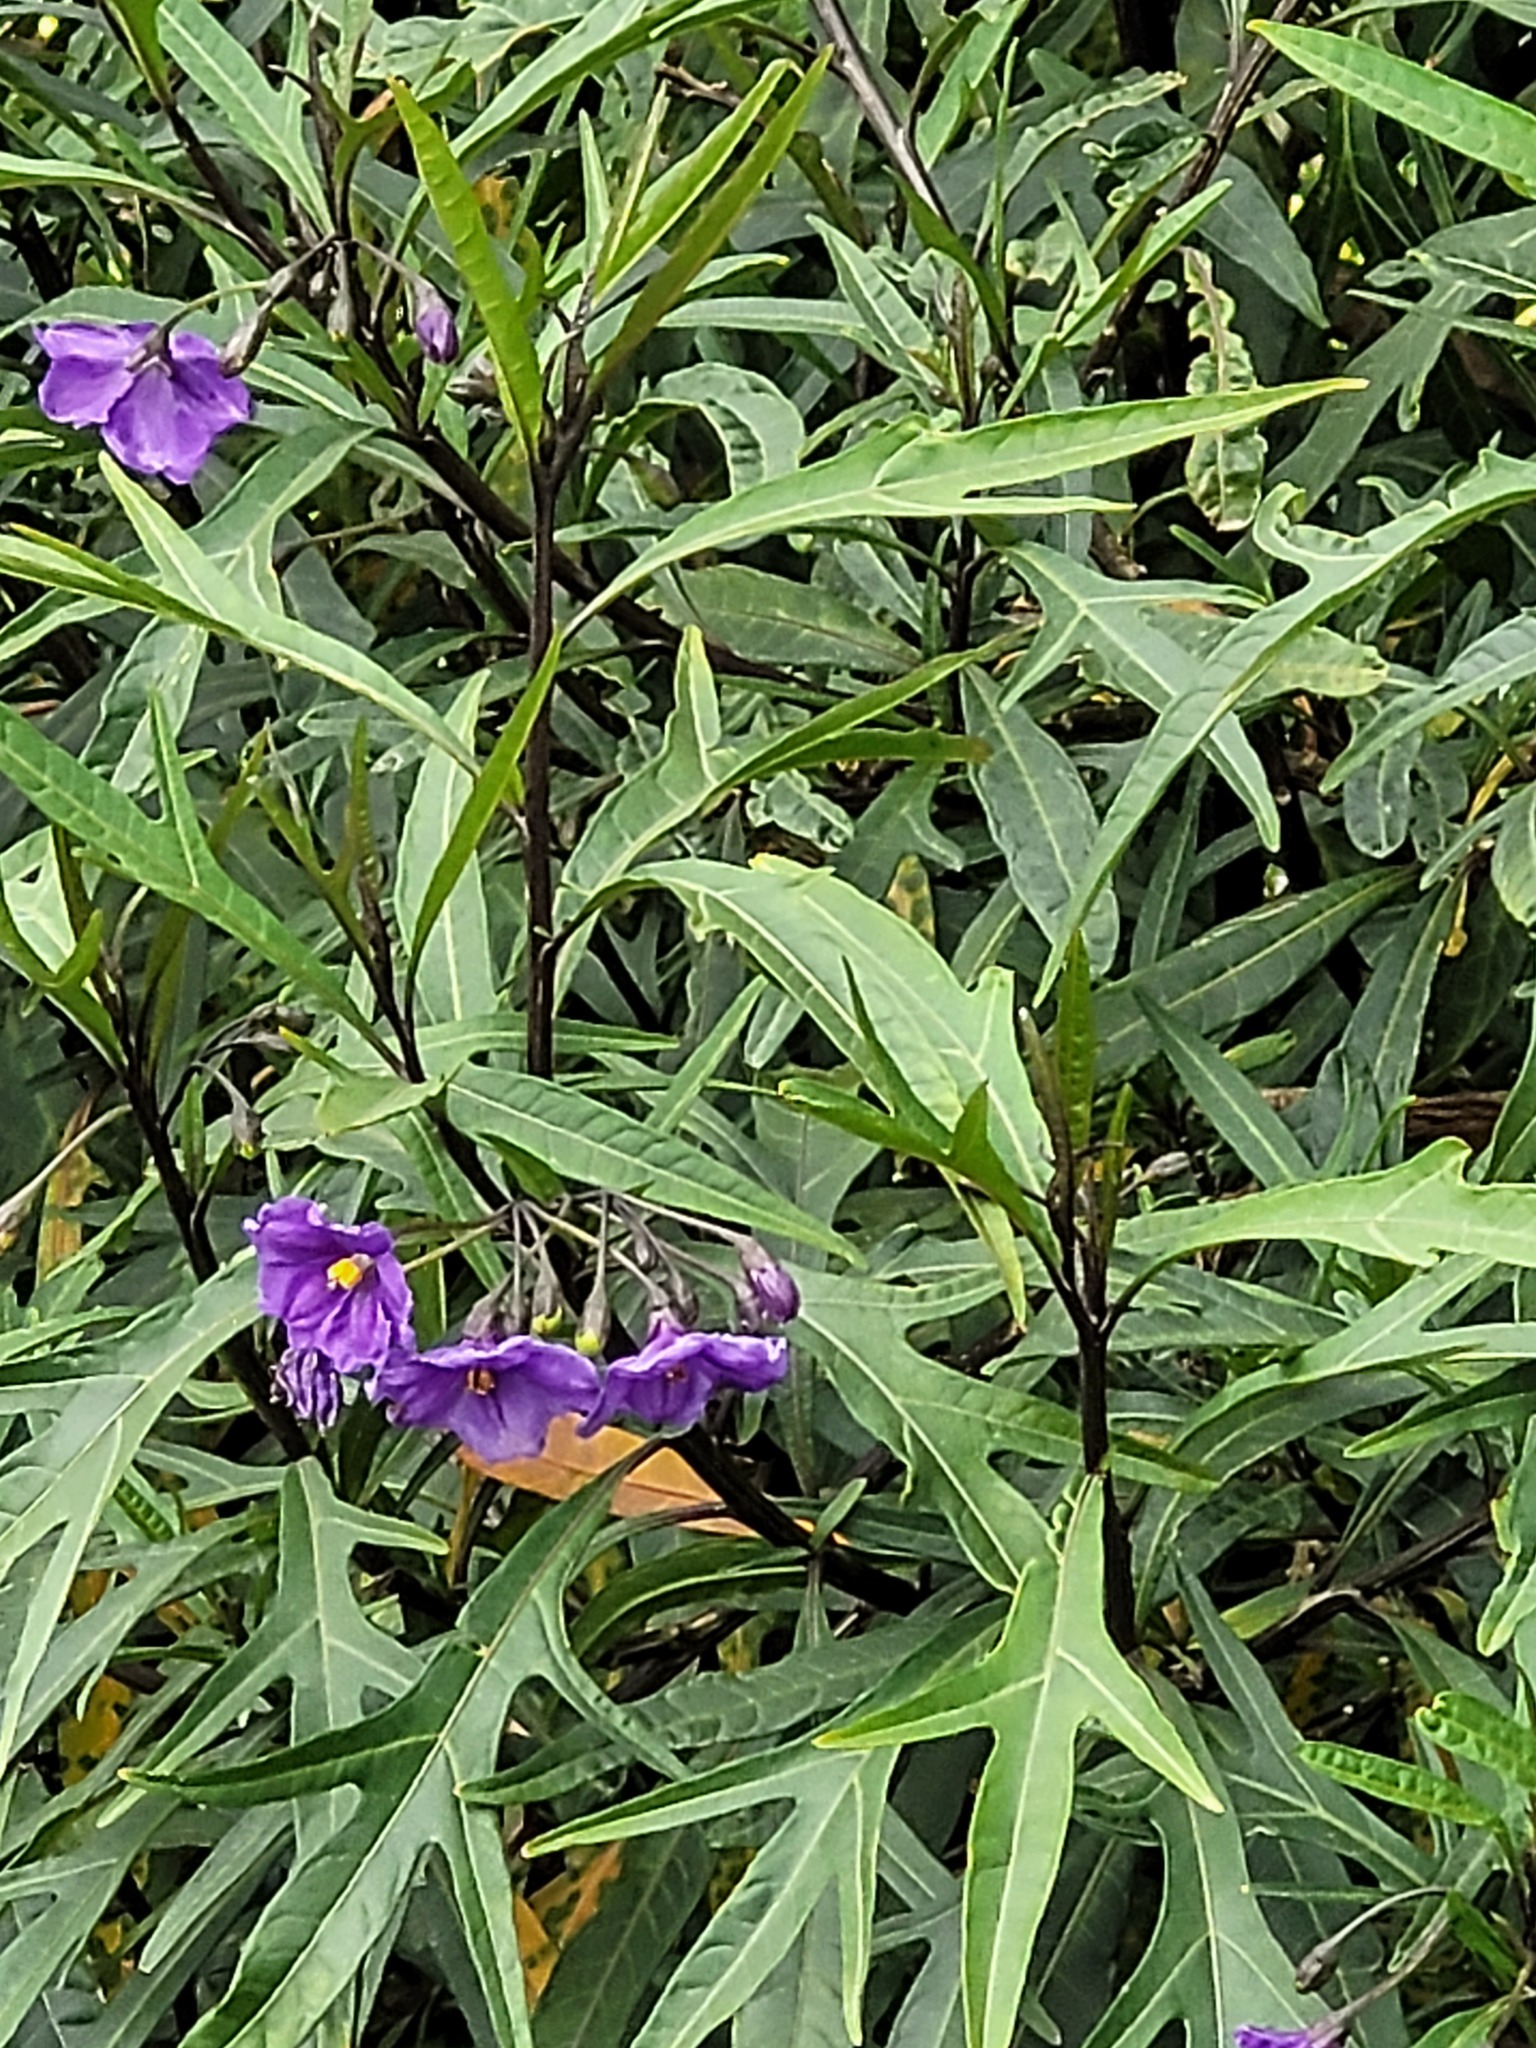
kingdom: Plantae
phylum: Tracheophyta
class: Magnoliopsida
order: Solanales
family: Solanaceae
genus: Solanum
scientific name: Solanum laciniatum
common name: Kangaroo-apple
